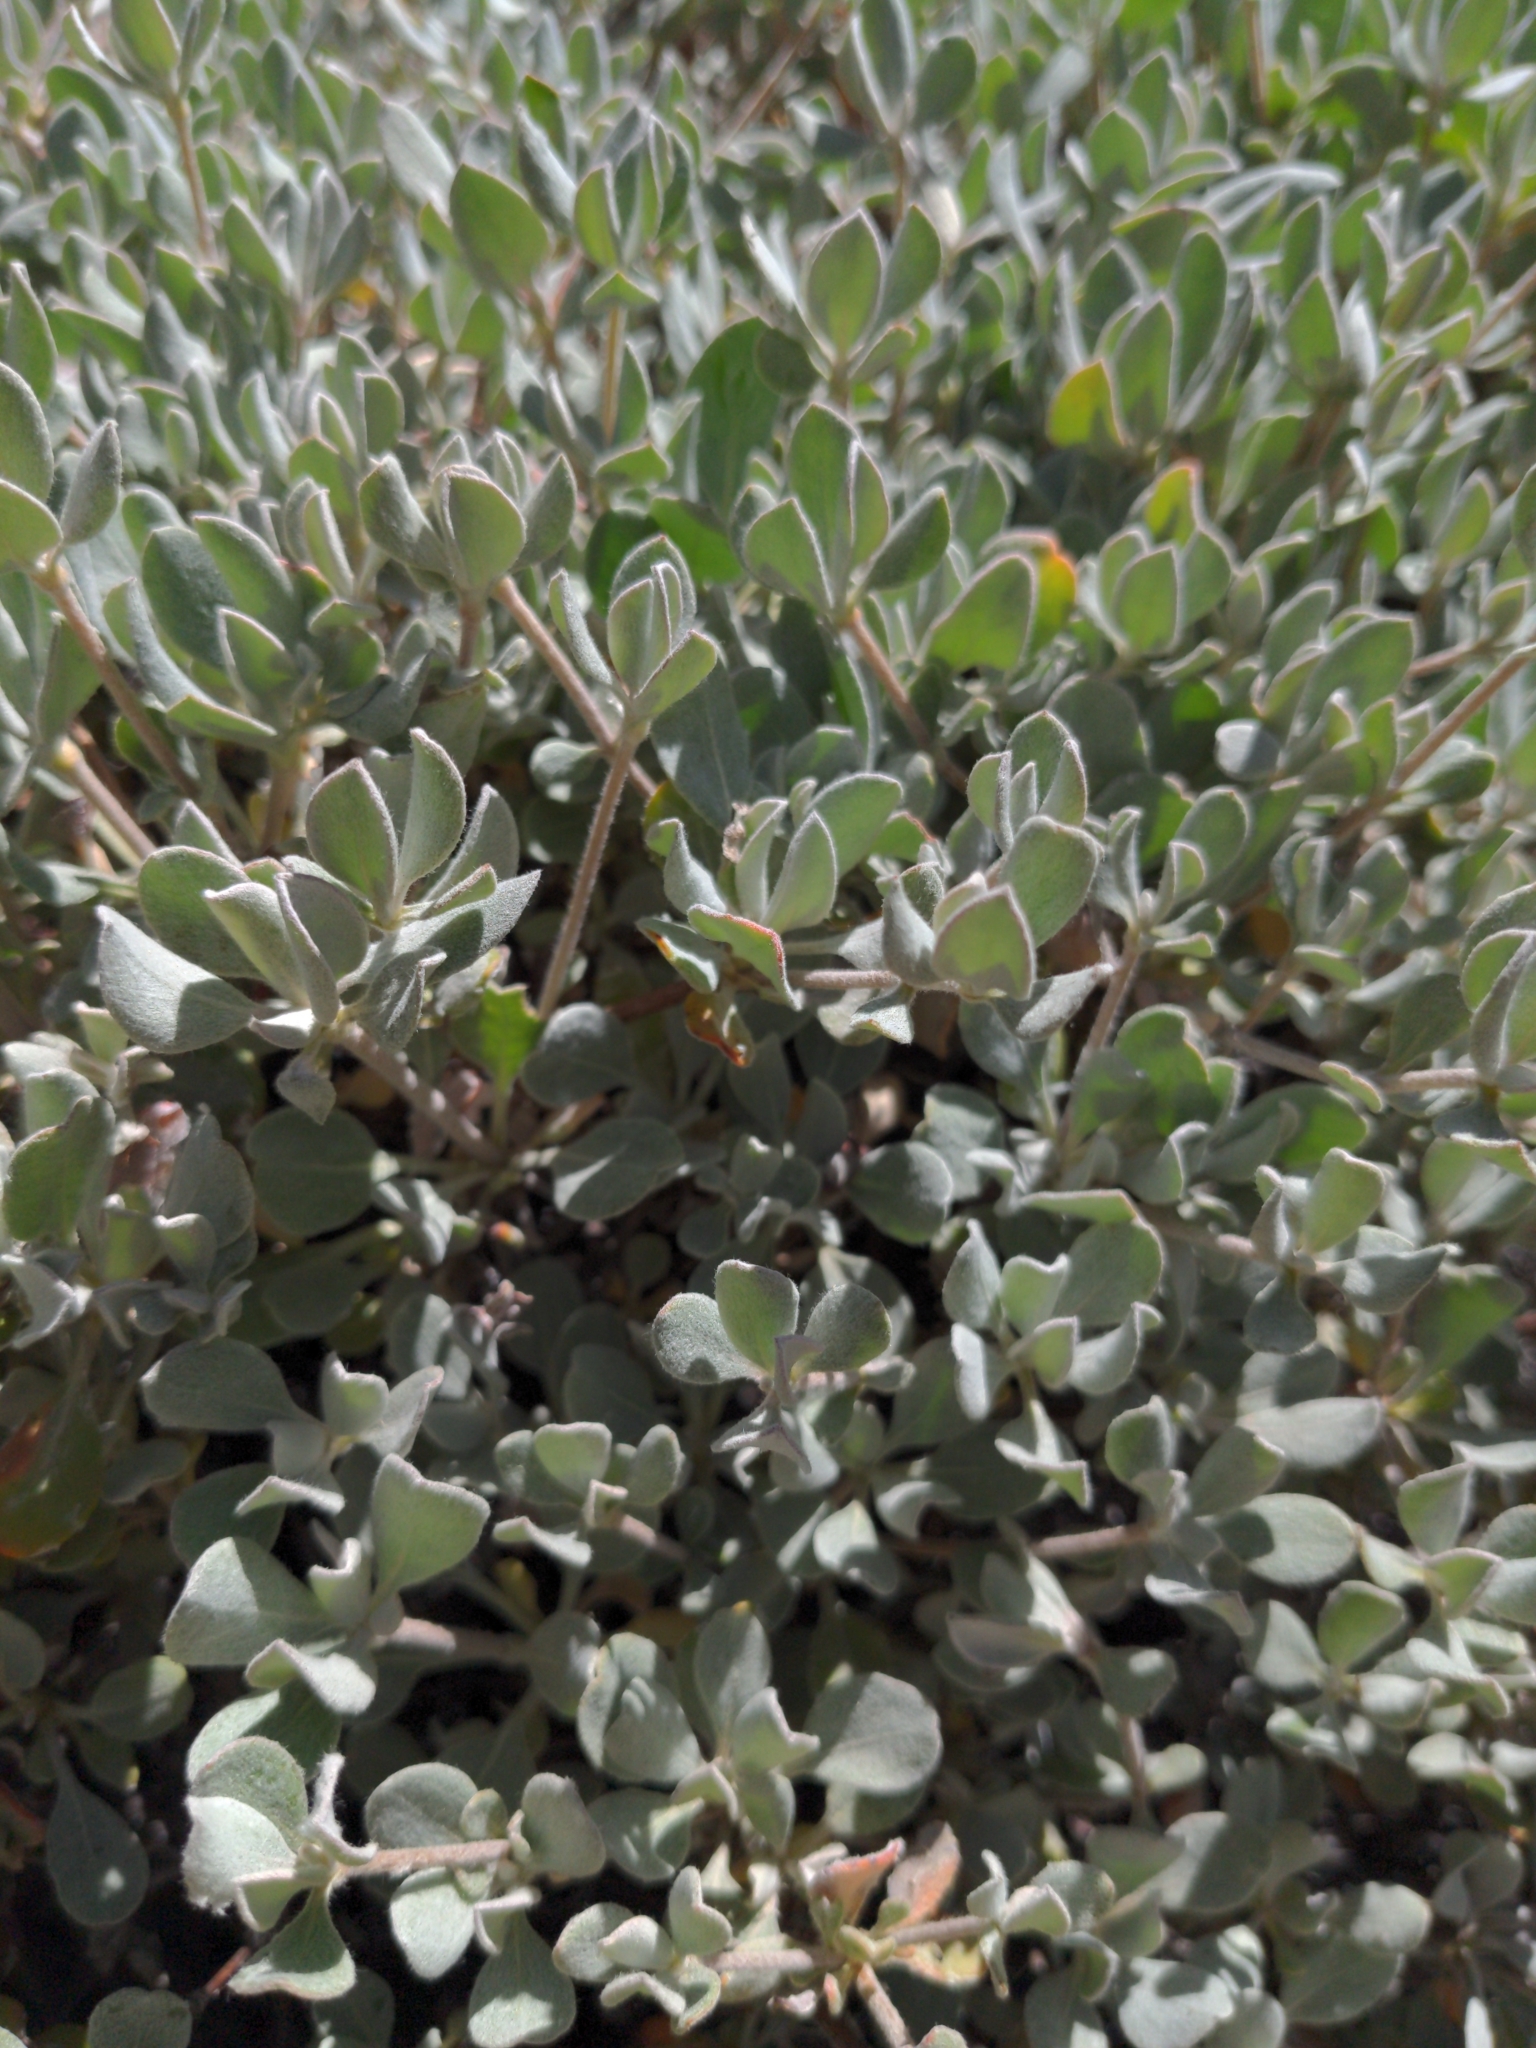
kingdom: Plantae
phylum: Tracheophyta
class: Magnoliopsida
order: Caryophyllales
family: Polygonaceae
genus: Eriogonum
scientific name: Eriogonum umbellatum
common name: Sulfur-buckwheat
